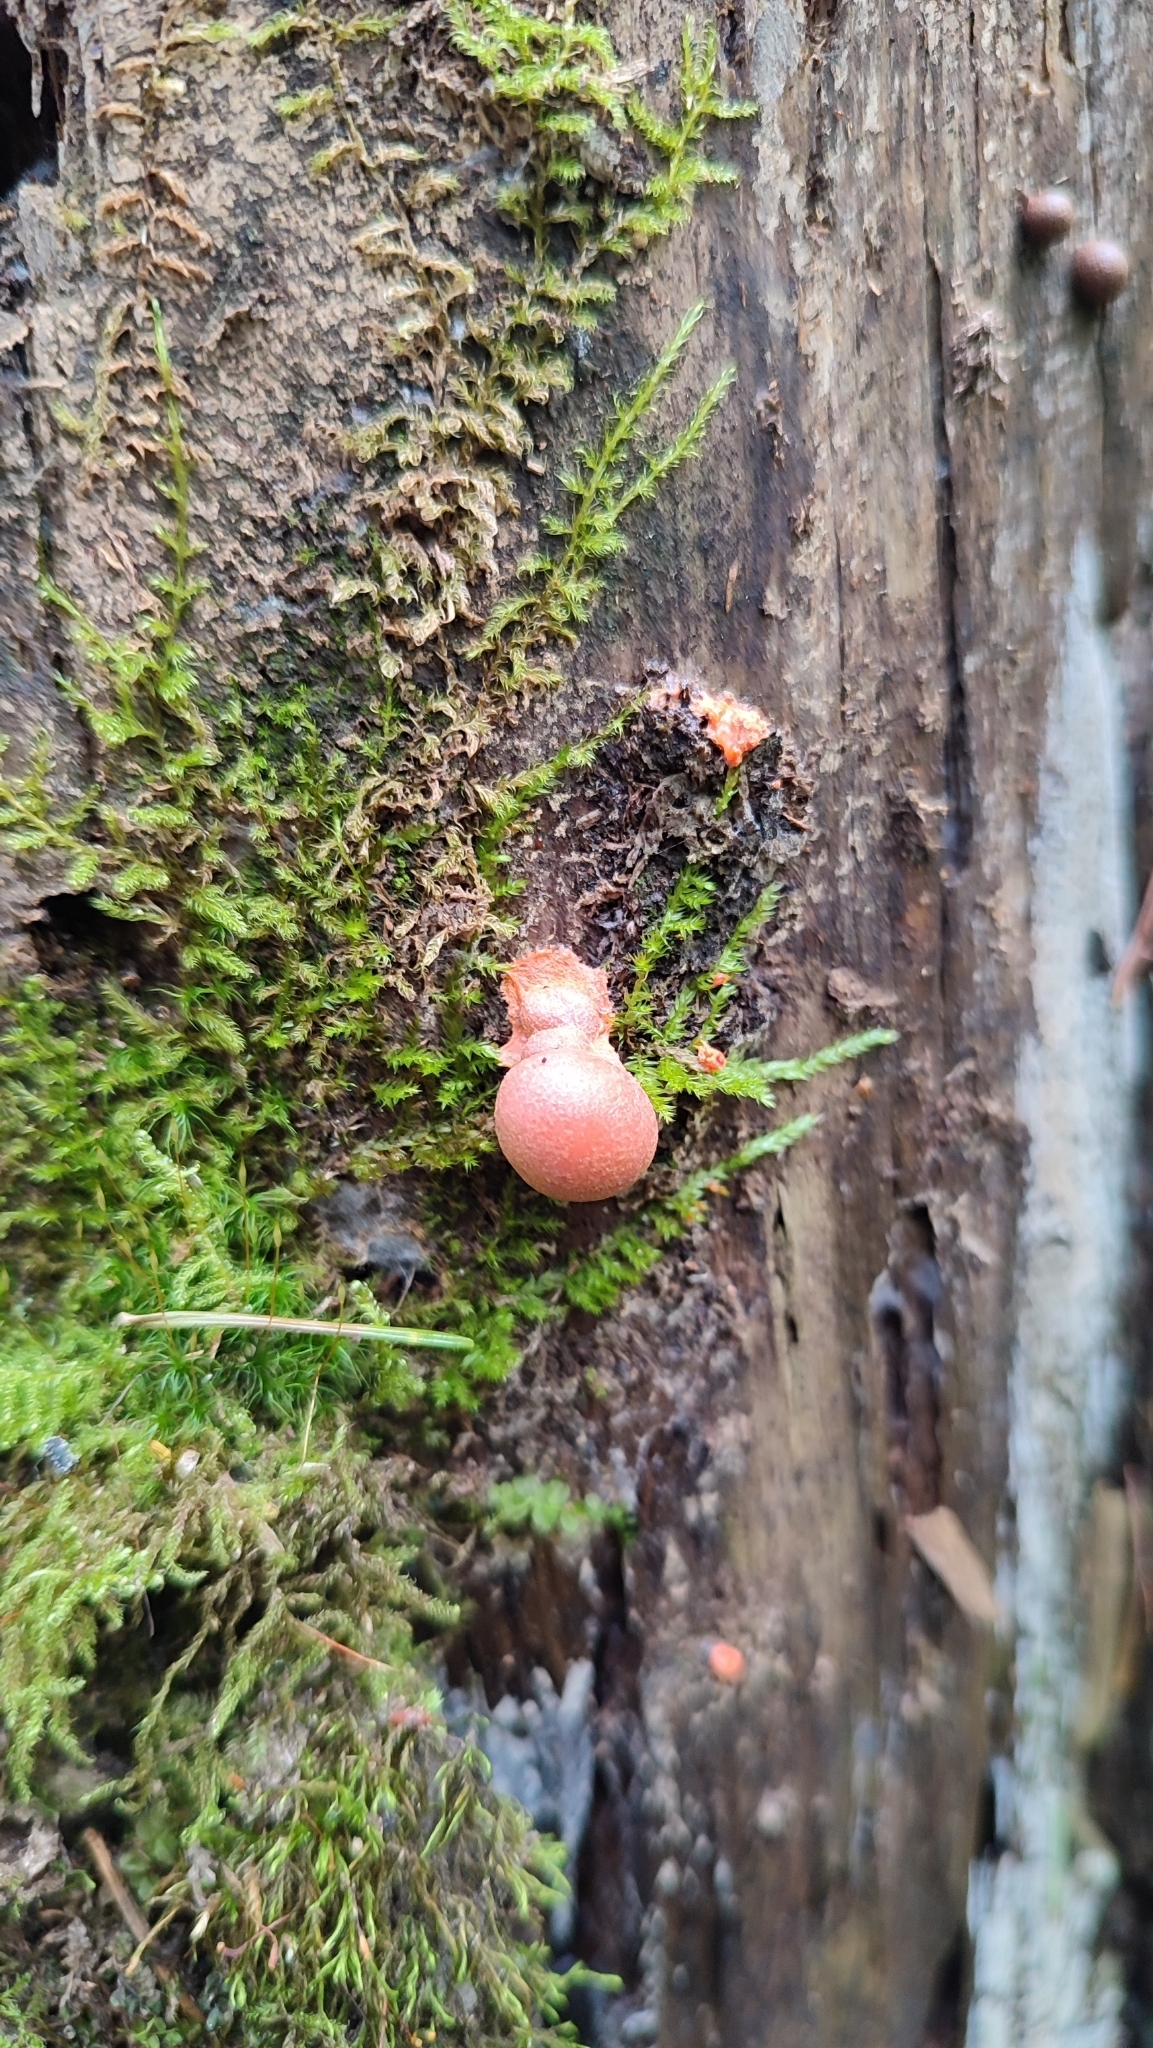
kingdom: Protozoa
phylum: Mycetozoa
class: Myxomycetes
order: Cribrariales
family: Tubiferaceae
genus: Lycogala
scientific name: Lycogala epidendrum
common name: Wolf's milk
